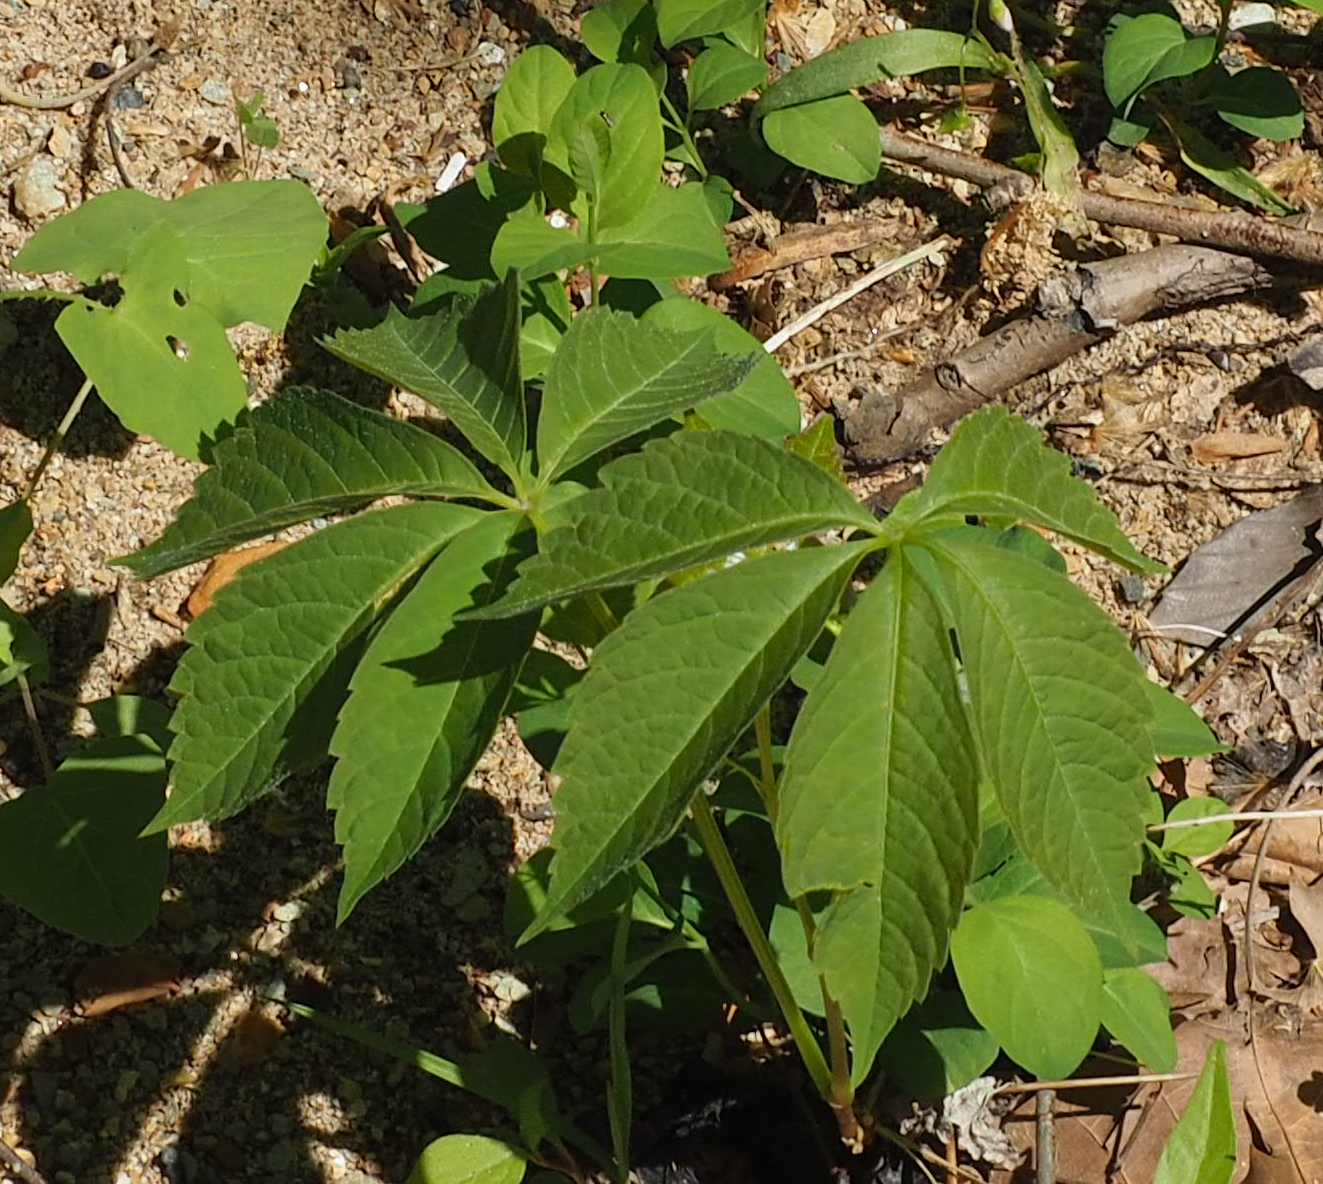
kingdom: Plantae
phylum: Tracheophyta
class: Magnoliopsida
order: Vitales
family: Vitaceae
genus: Parthenocissus
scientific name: Parthenocissus quinquefolia
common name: Virginia-creeper
